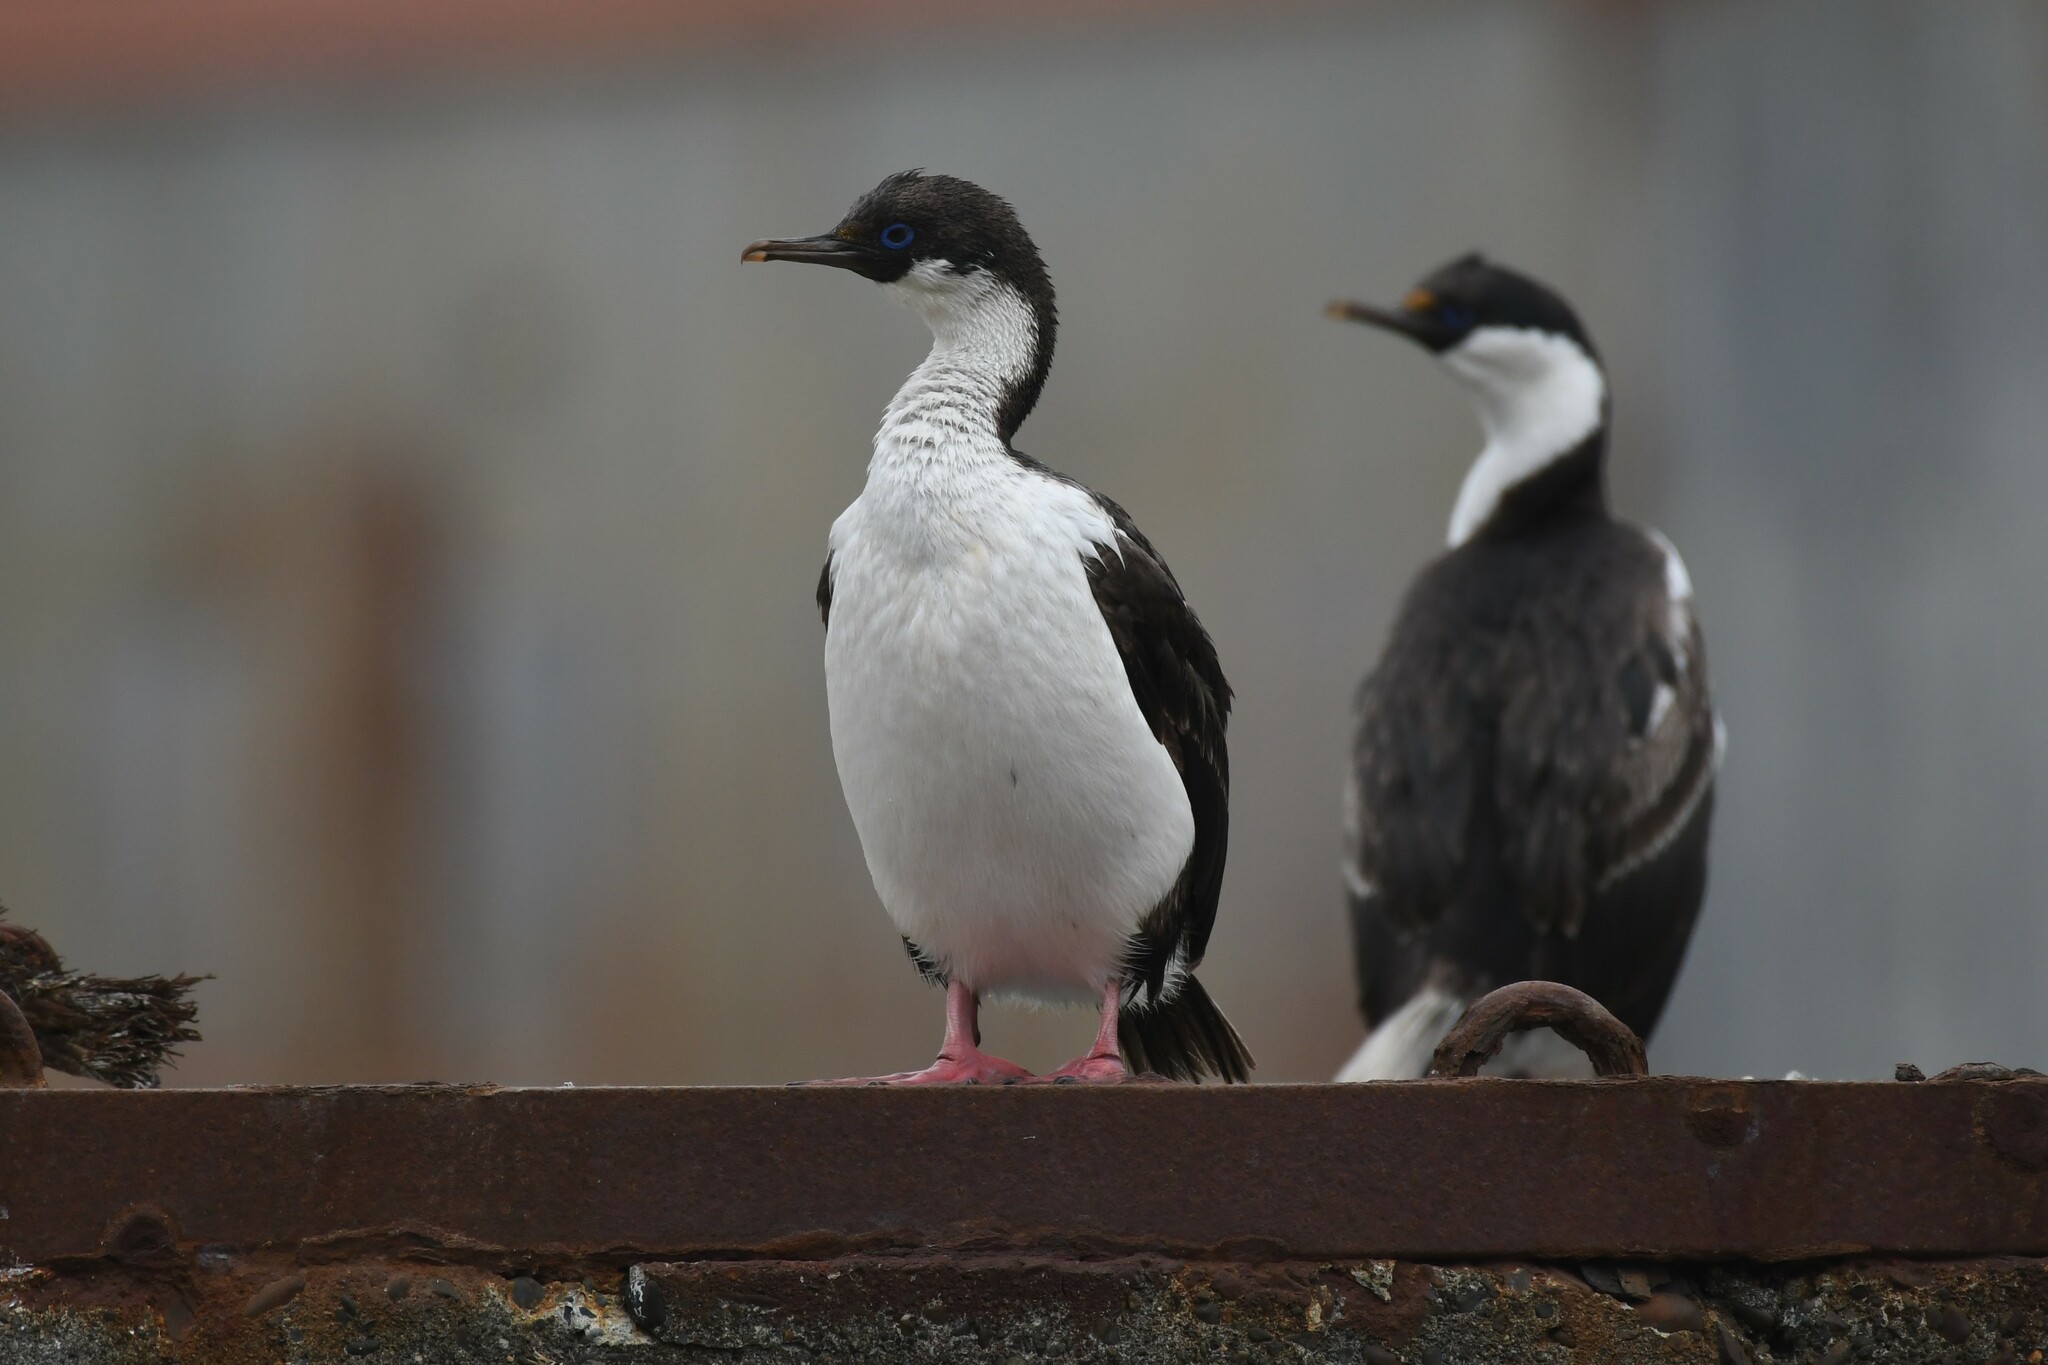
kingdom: Animalia
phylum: Chordata
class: Aves
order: Suliformes
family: Phalacrocoracidae
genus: Leucocarbo
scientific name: Leucocarbo atriceps
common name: Imperial shag
